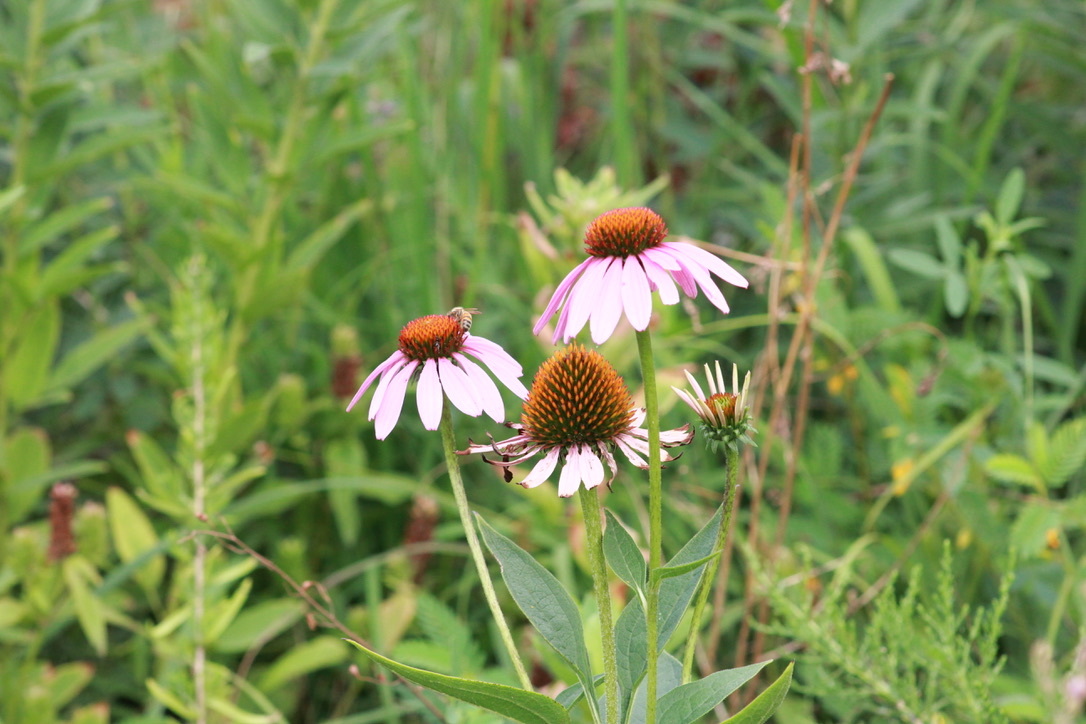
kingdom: Plantae
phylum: Tracheophyta
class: Magnoliopsida
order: Asterales
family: Asteraceae
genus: Echinacea
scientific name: Echinacea purpurea
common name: Broad-leaved purple coneflower
